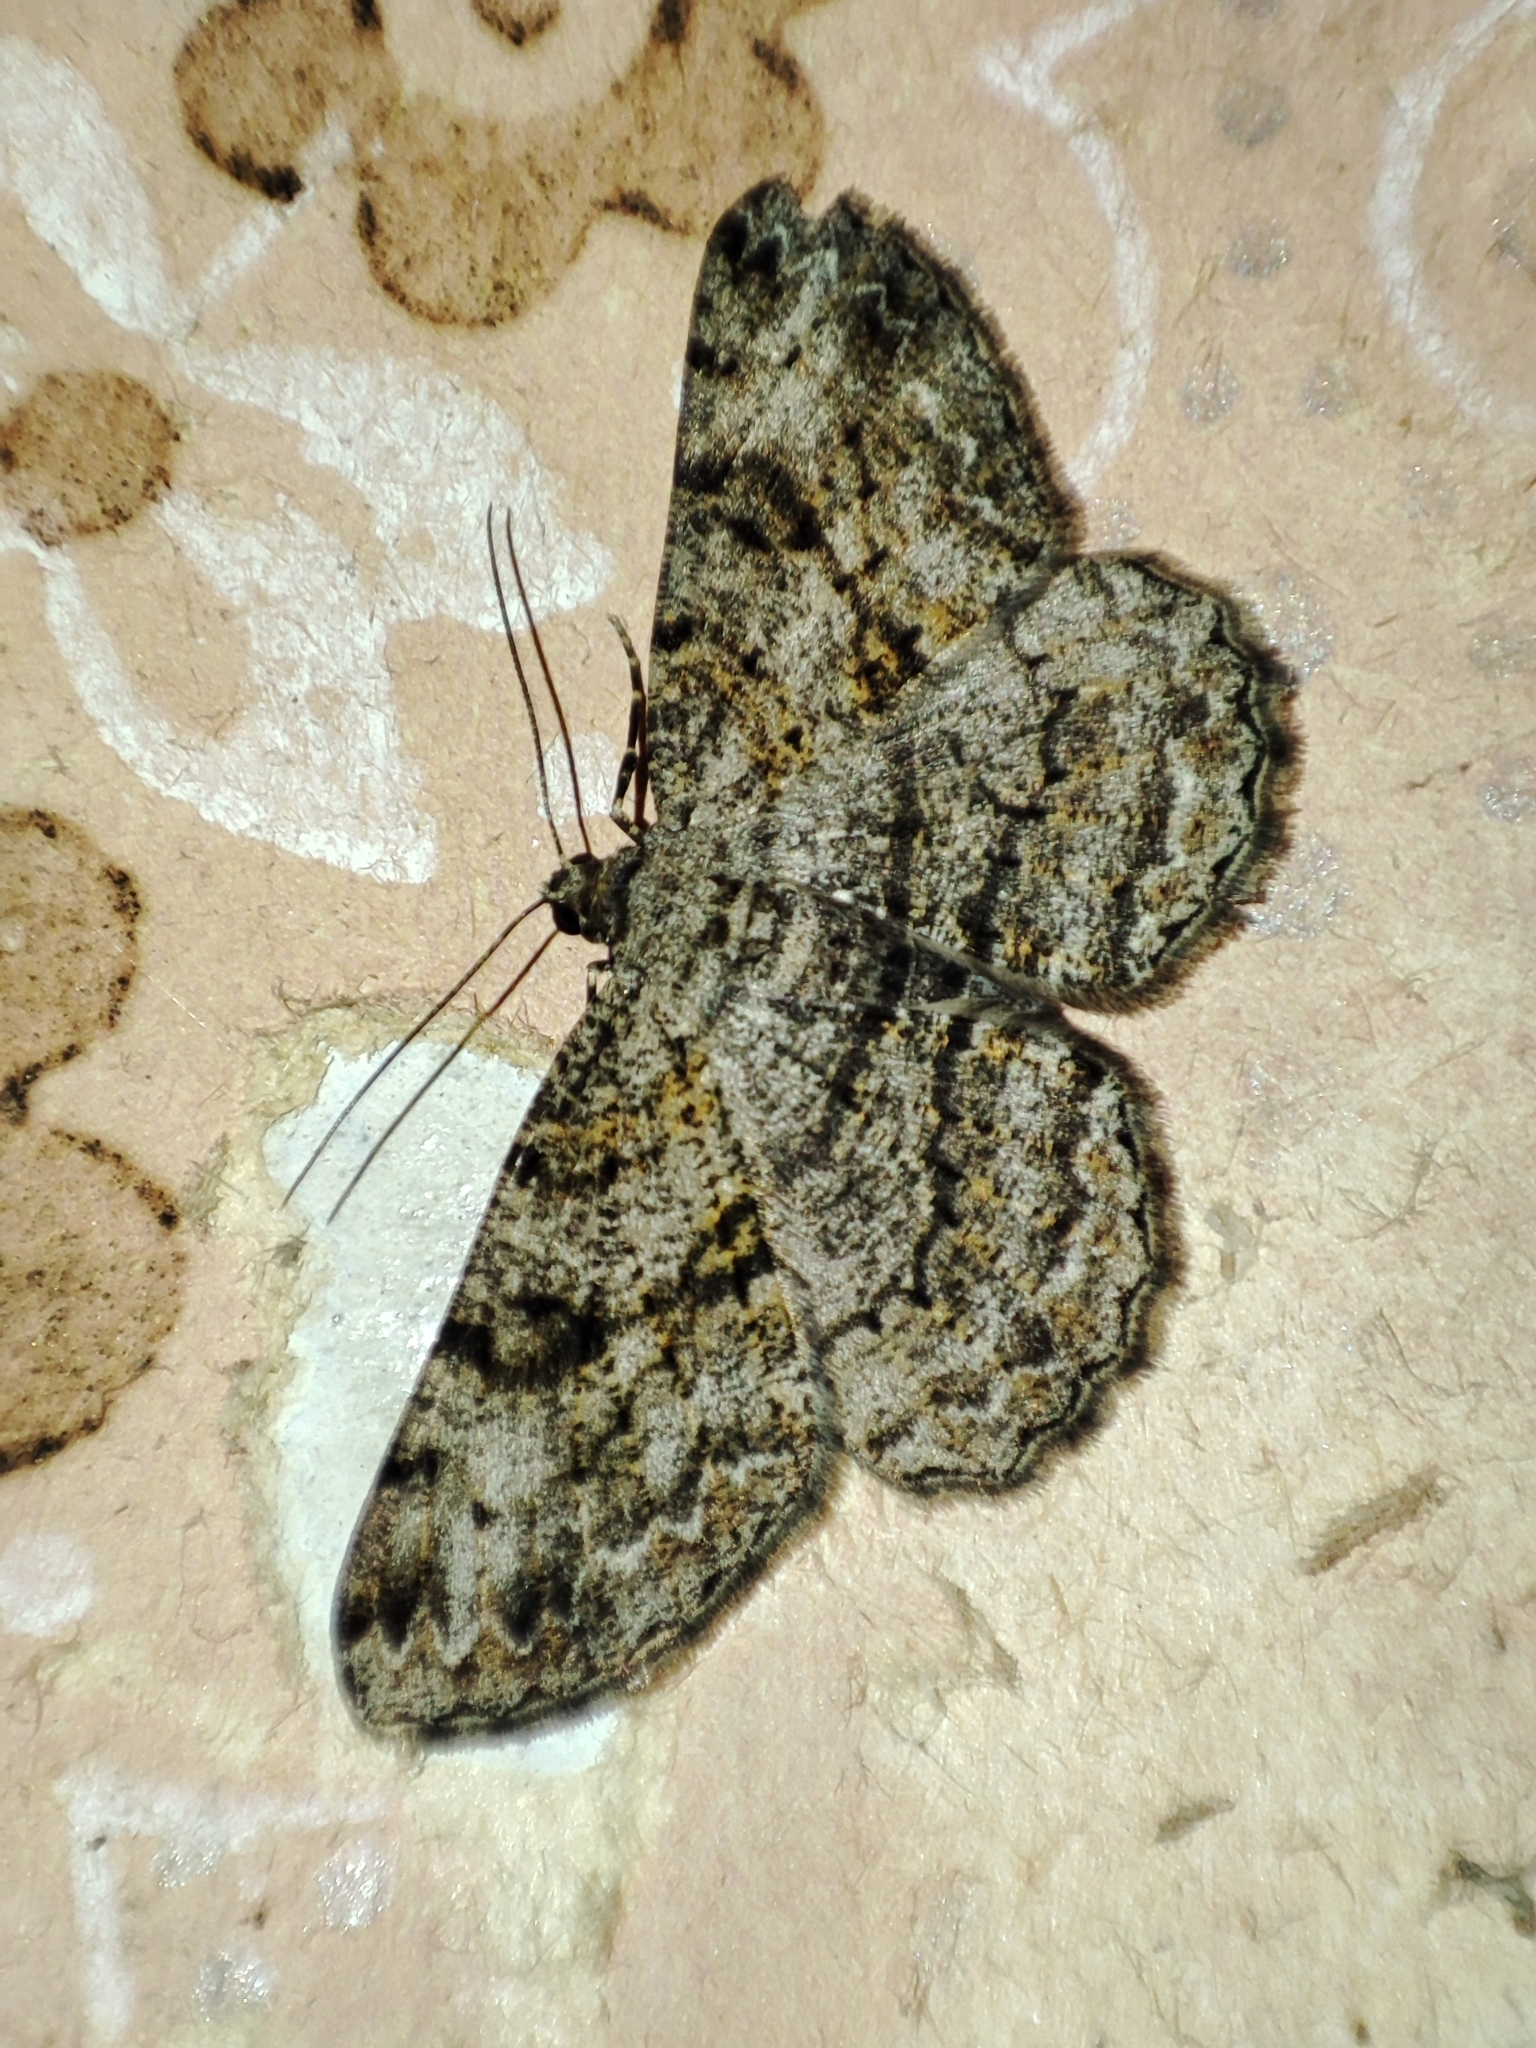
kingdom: Animalia
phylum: Arthropoda
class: Insecta
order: Lepidoptera
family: Geometridae
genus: Peribatodes
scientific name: Peribatodes rhomboidaria
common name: Willow beauty
